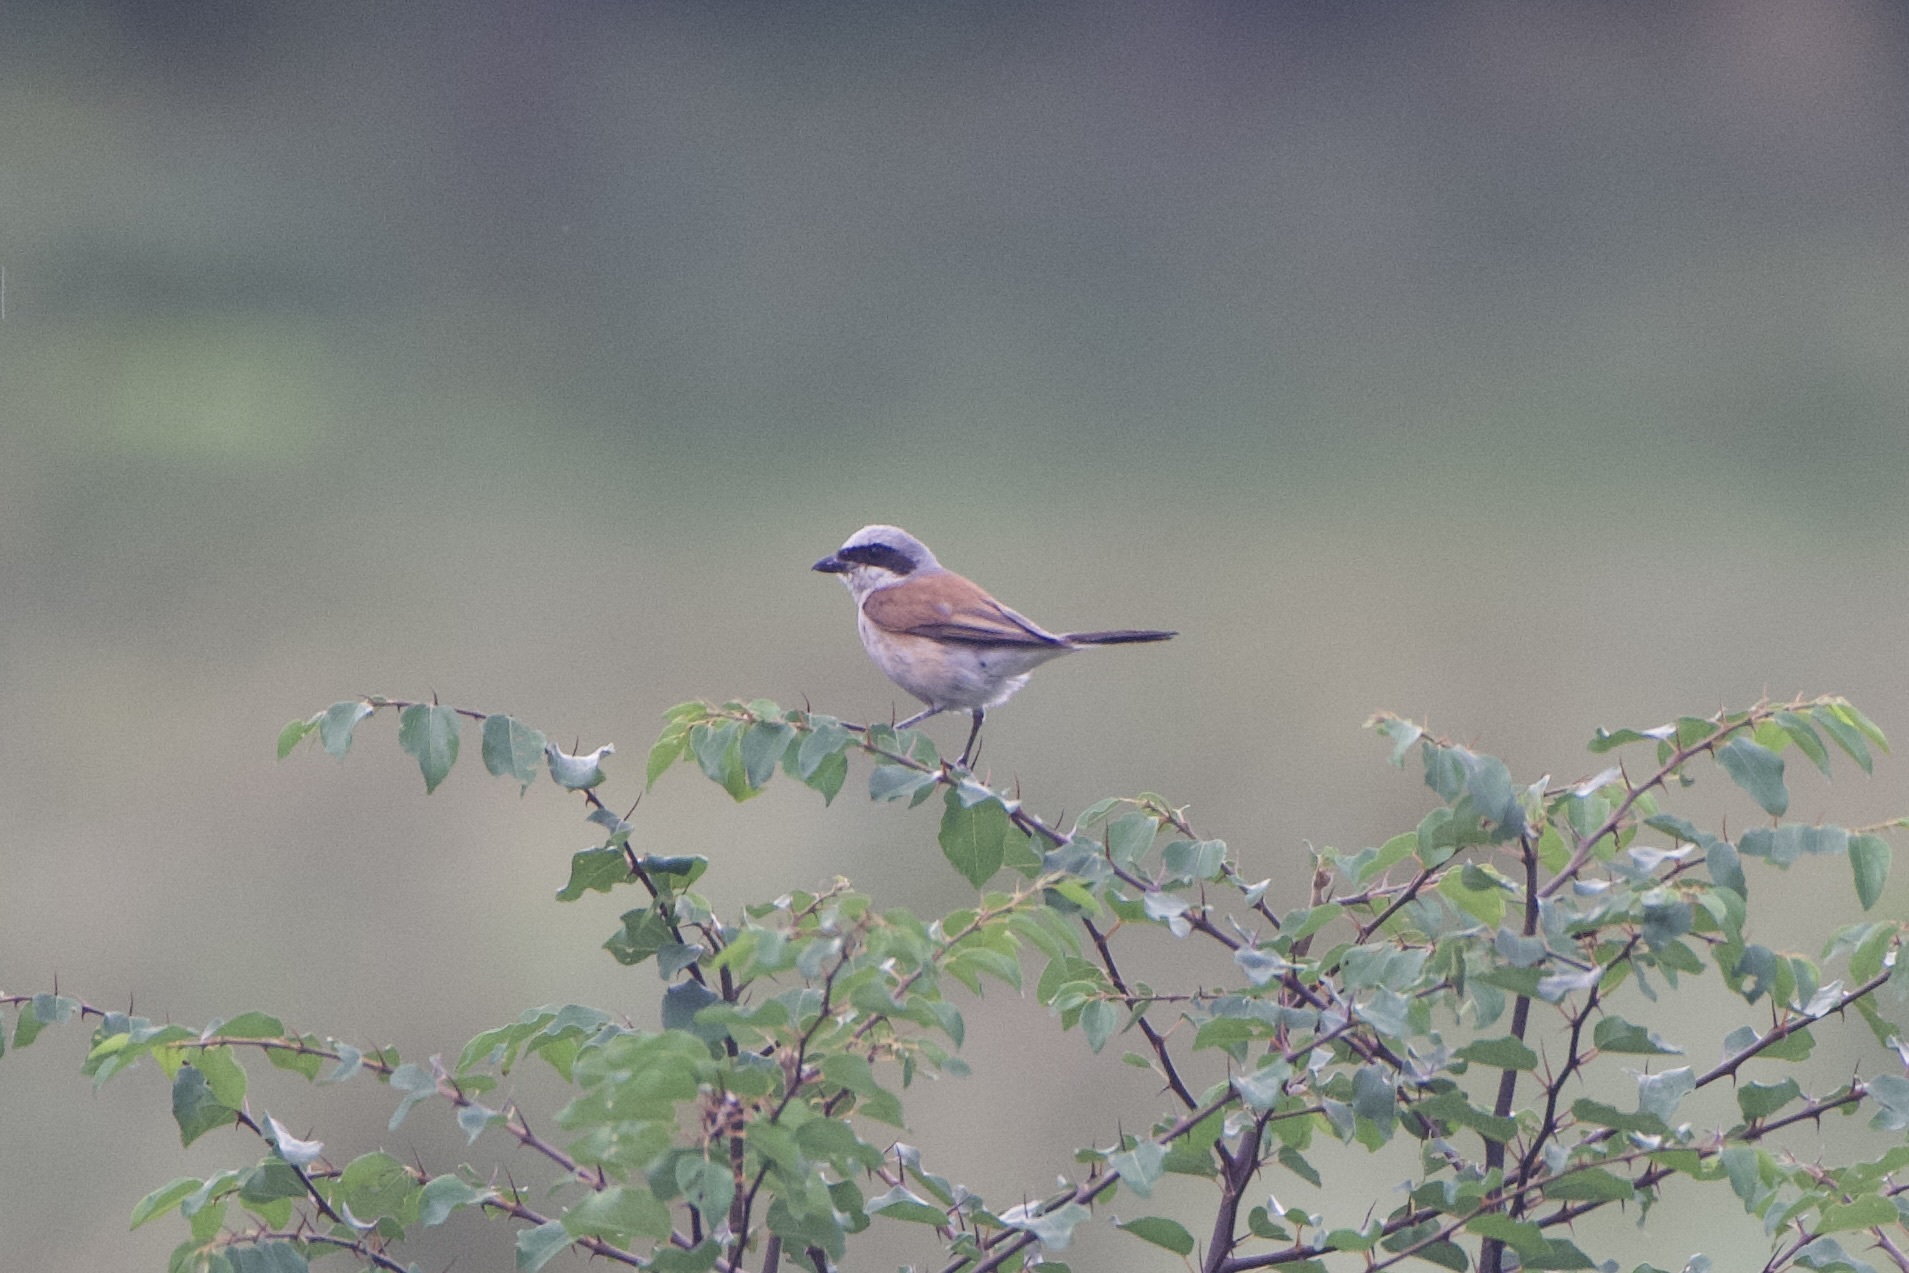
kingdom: Animalia
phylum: Chordata
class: Aves
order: Passeriformes
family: Laniidae
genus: Lanius
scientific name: Lanius collurio
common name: Red-backed shrike
